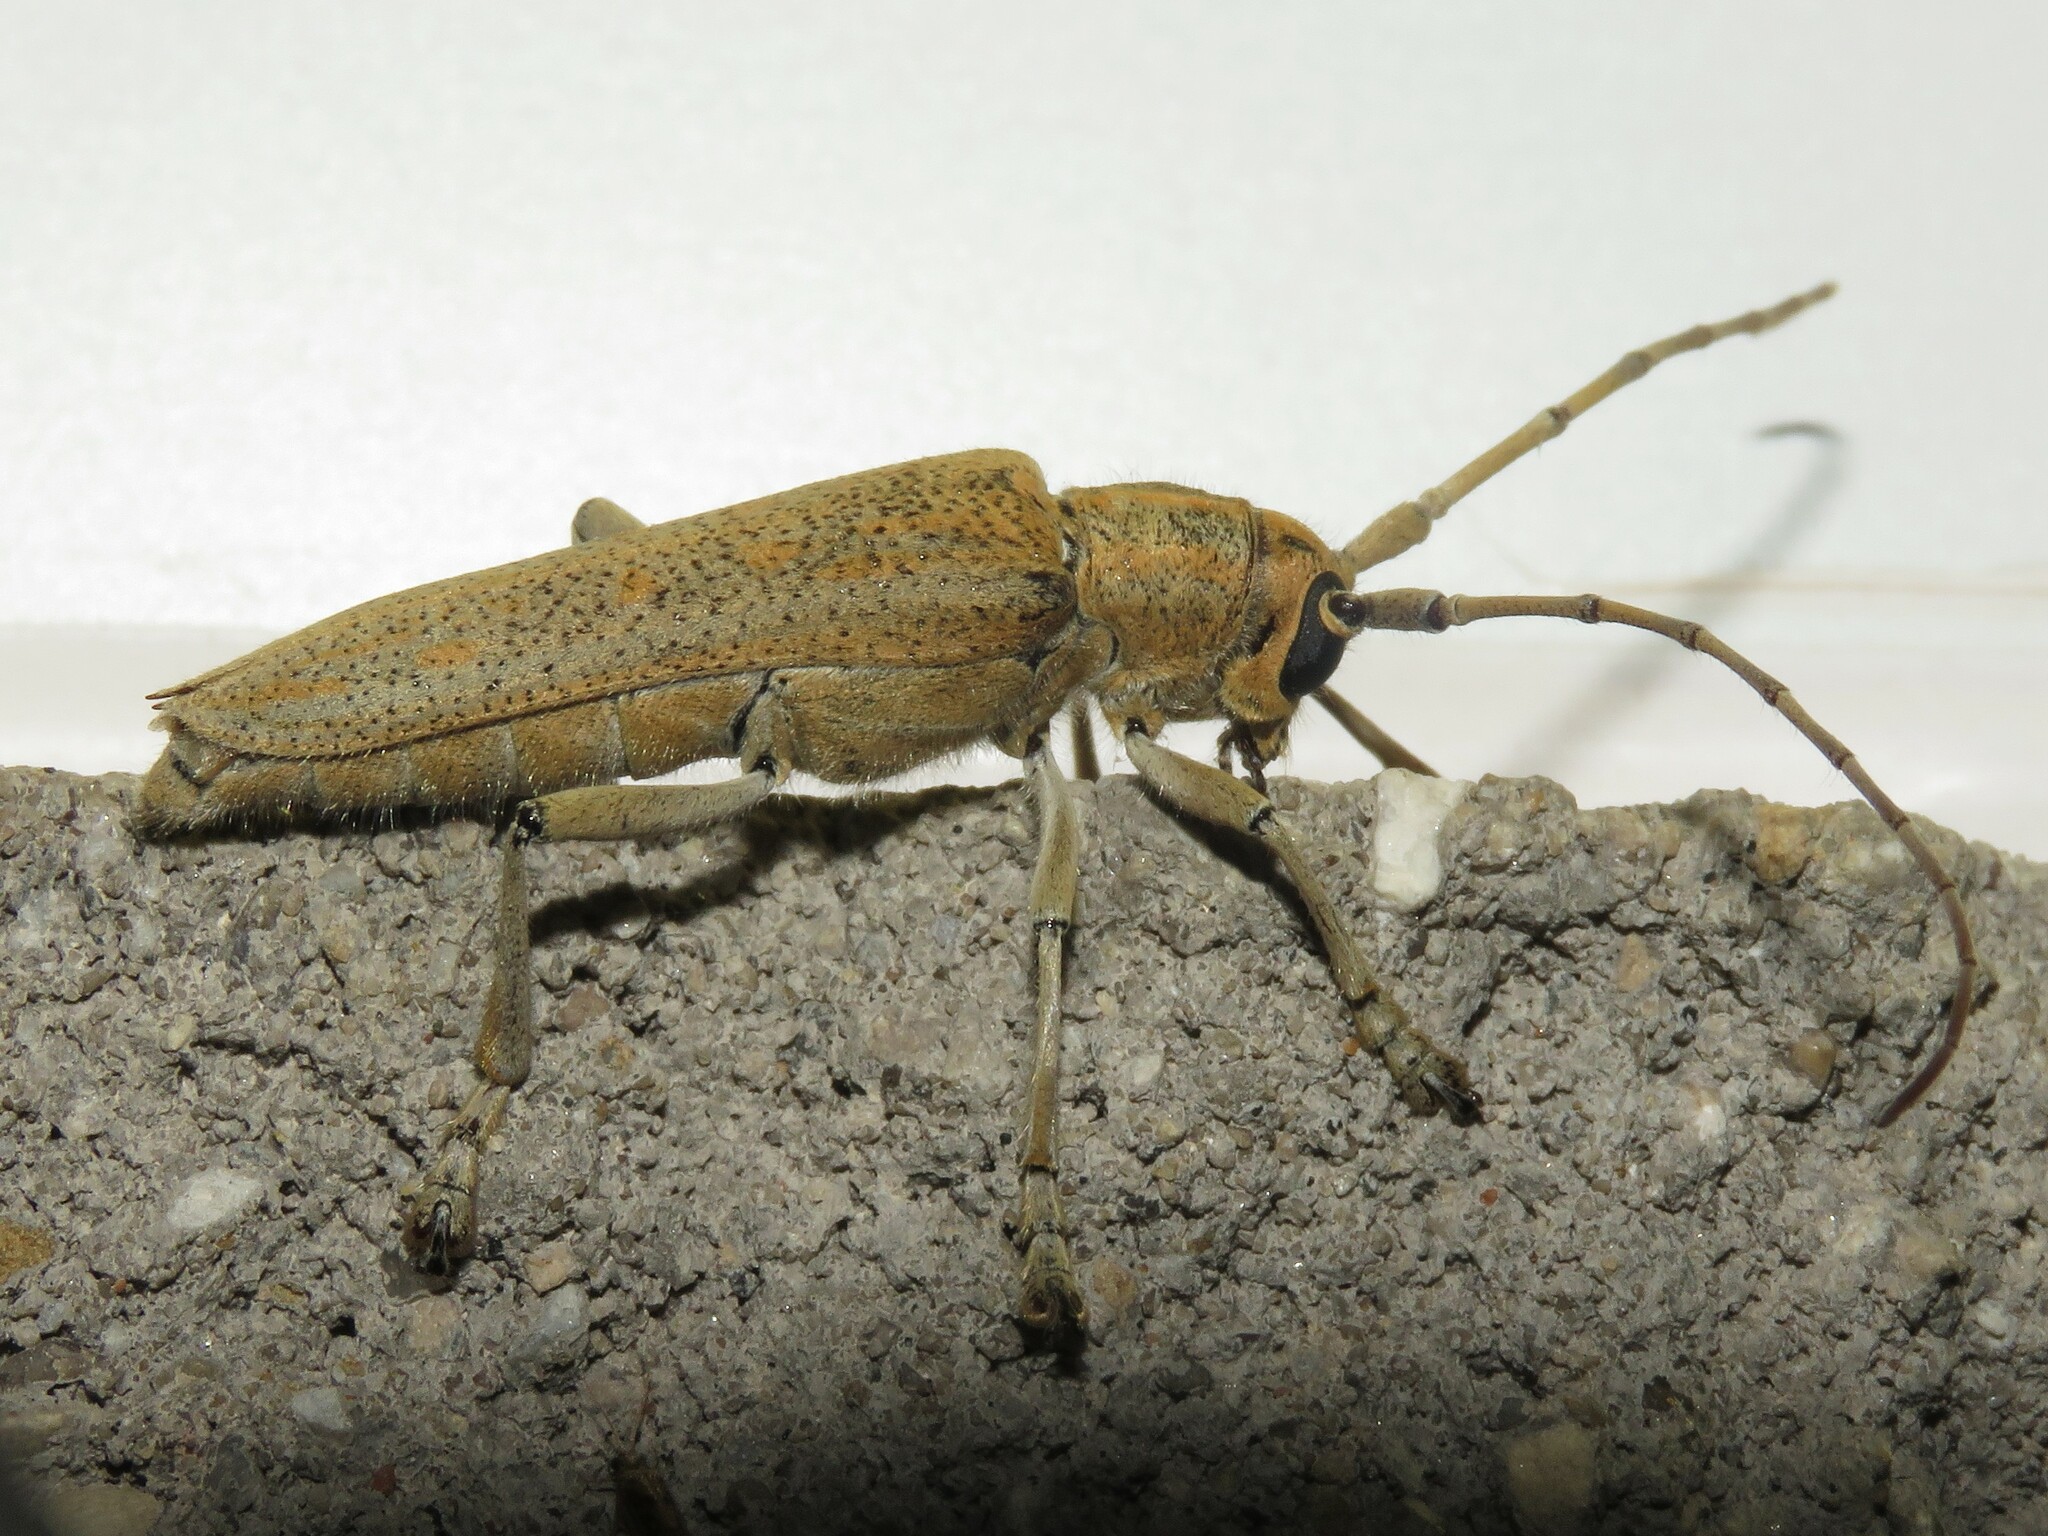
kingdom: Animalia
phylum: Arthropoda
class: Insecta
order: Coleoptera
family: Cerambycidae
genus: Saperda
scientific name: Saperda calcarata
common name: Poplar borer
